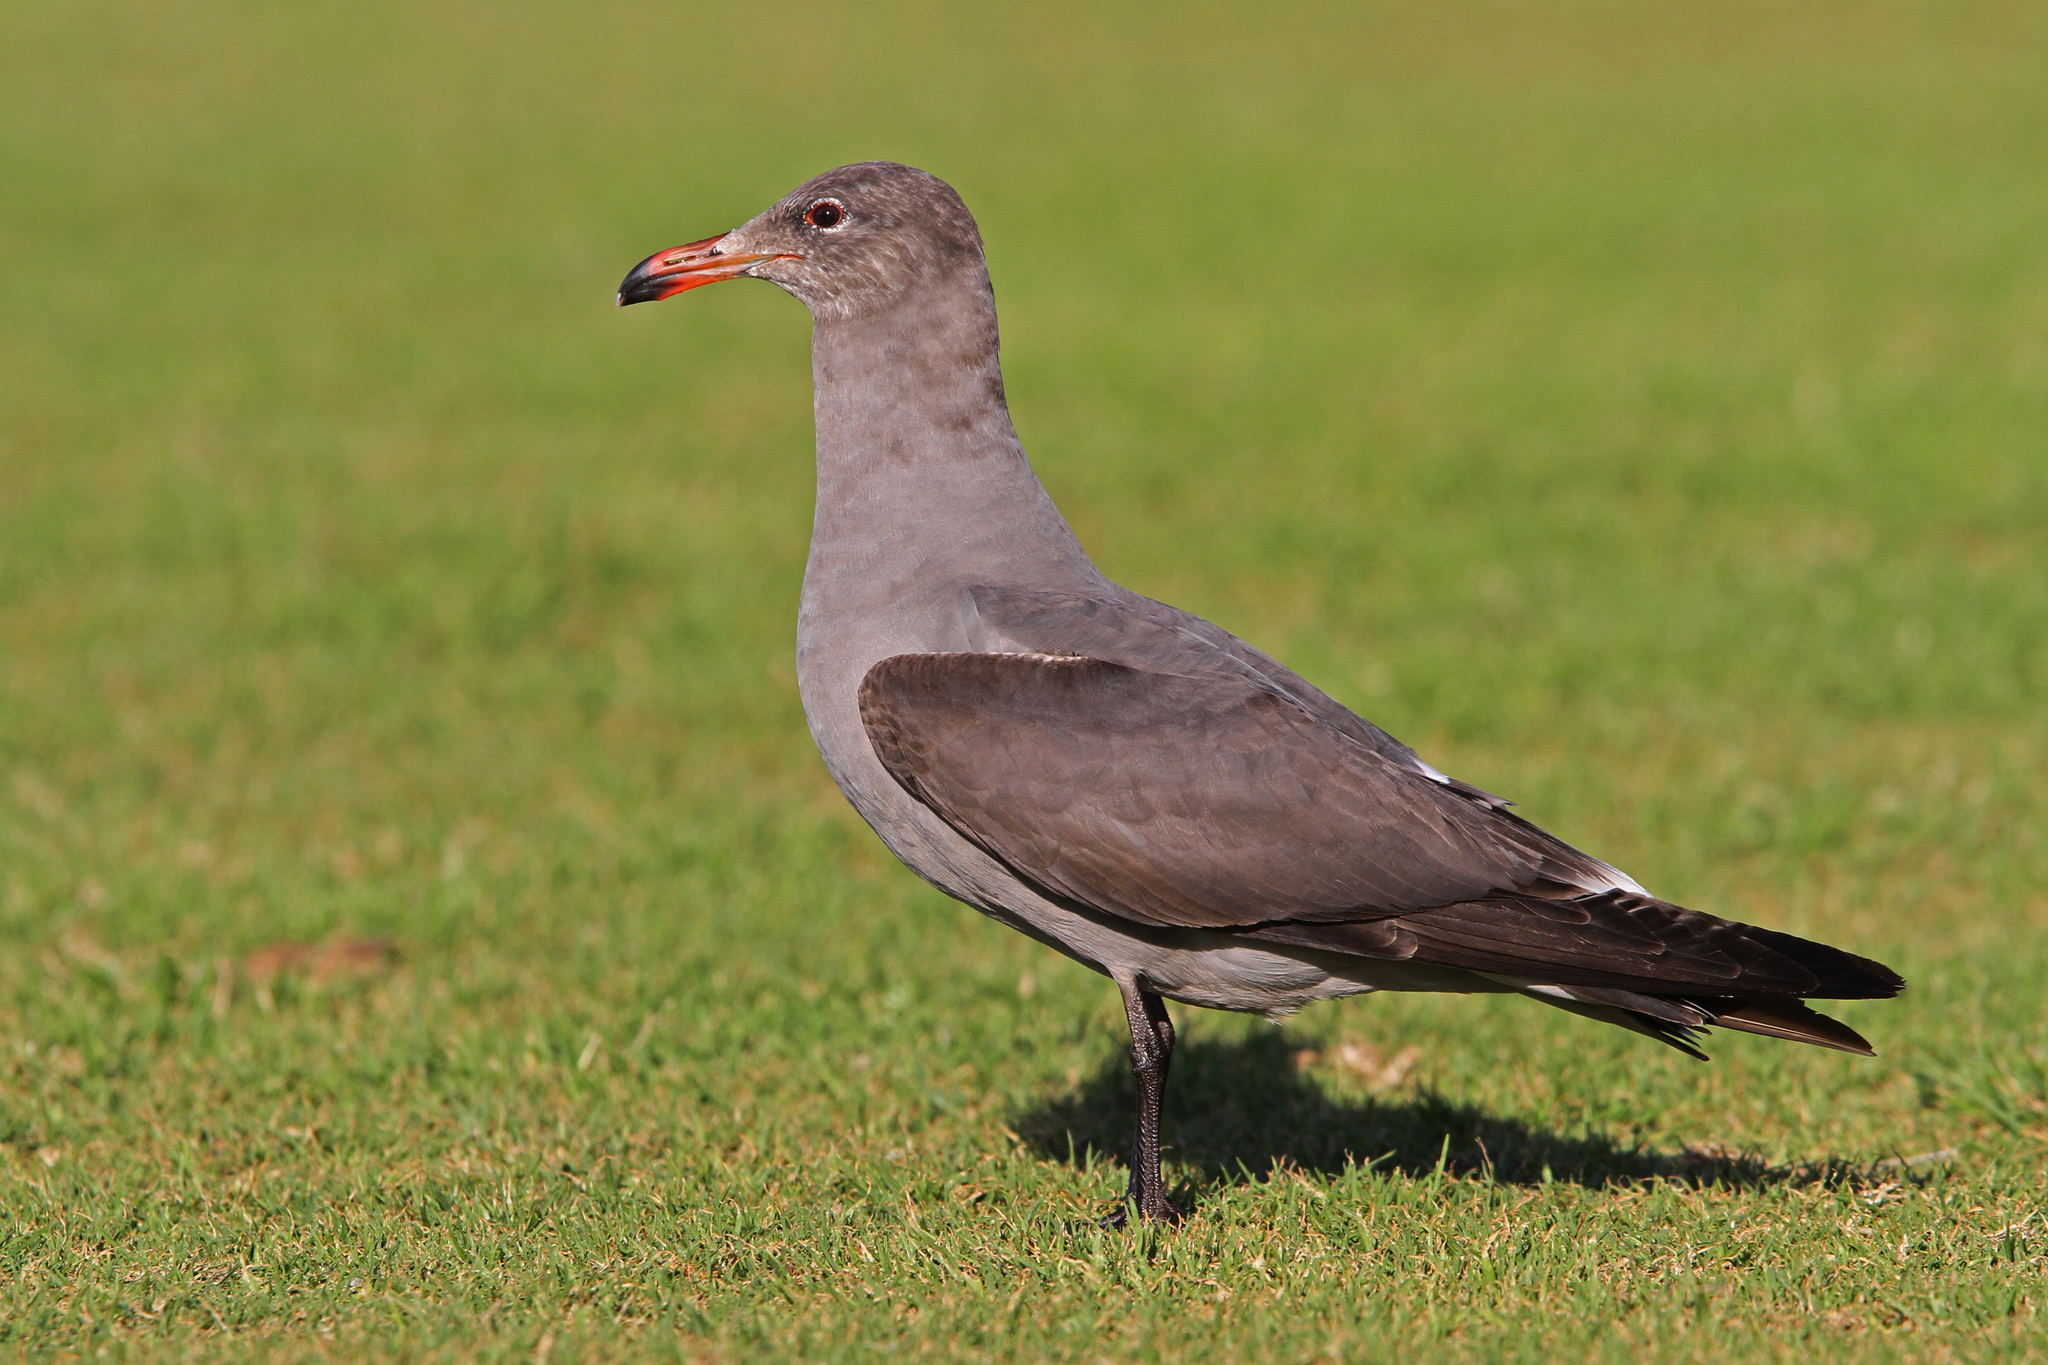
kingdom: Animalia
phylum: Chordata
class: Aves
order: Charadriiformes
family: Laridae
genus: Larus
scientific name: Larus heermanni
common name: Heermann's gull
